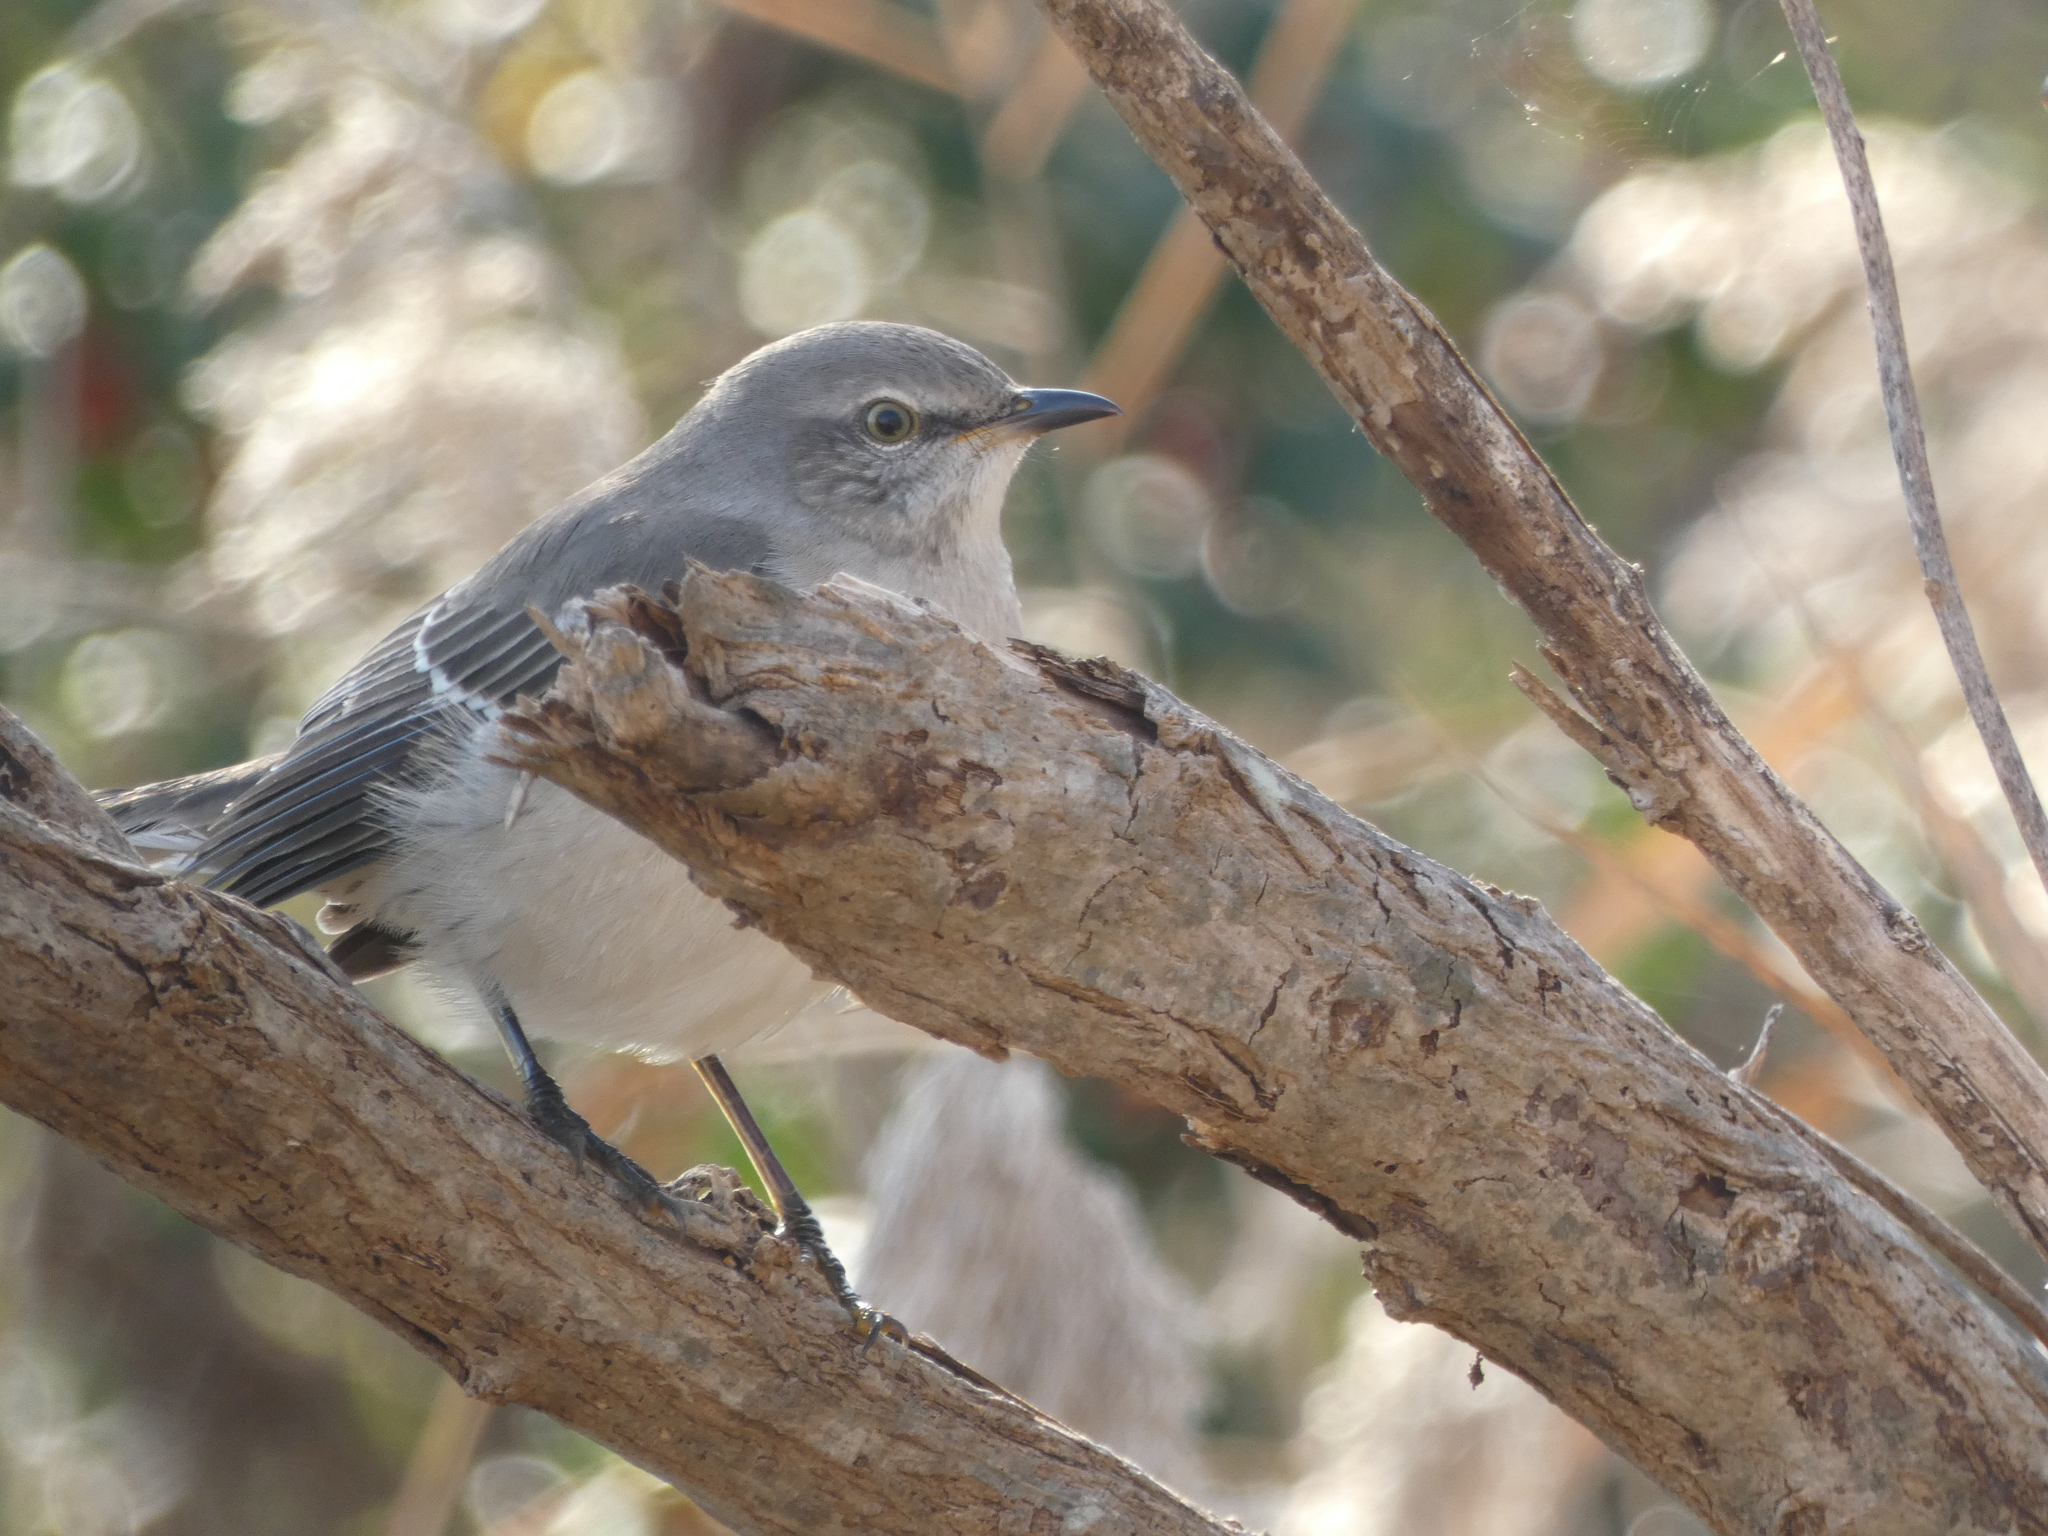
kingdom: Animalia
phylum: Chordata
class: Aves
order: Passeriformes
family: Mimidae
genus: Mimus
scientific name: Mimus polyglottos
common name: Northern mockingbird
